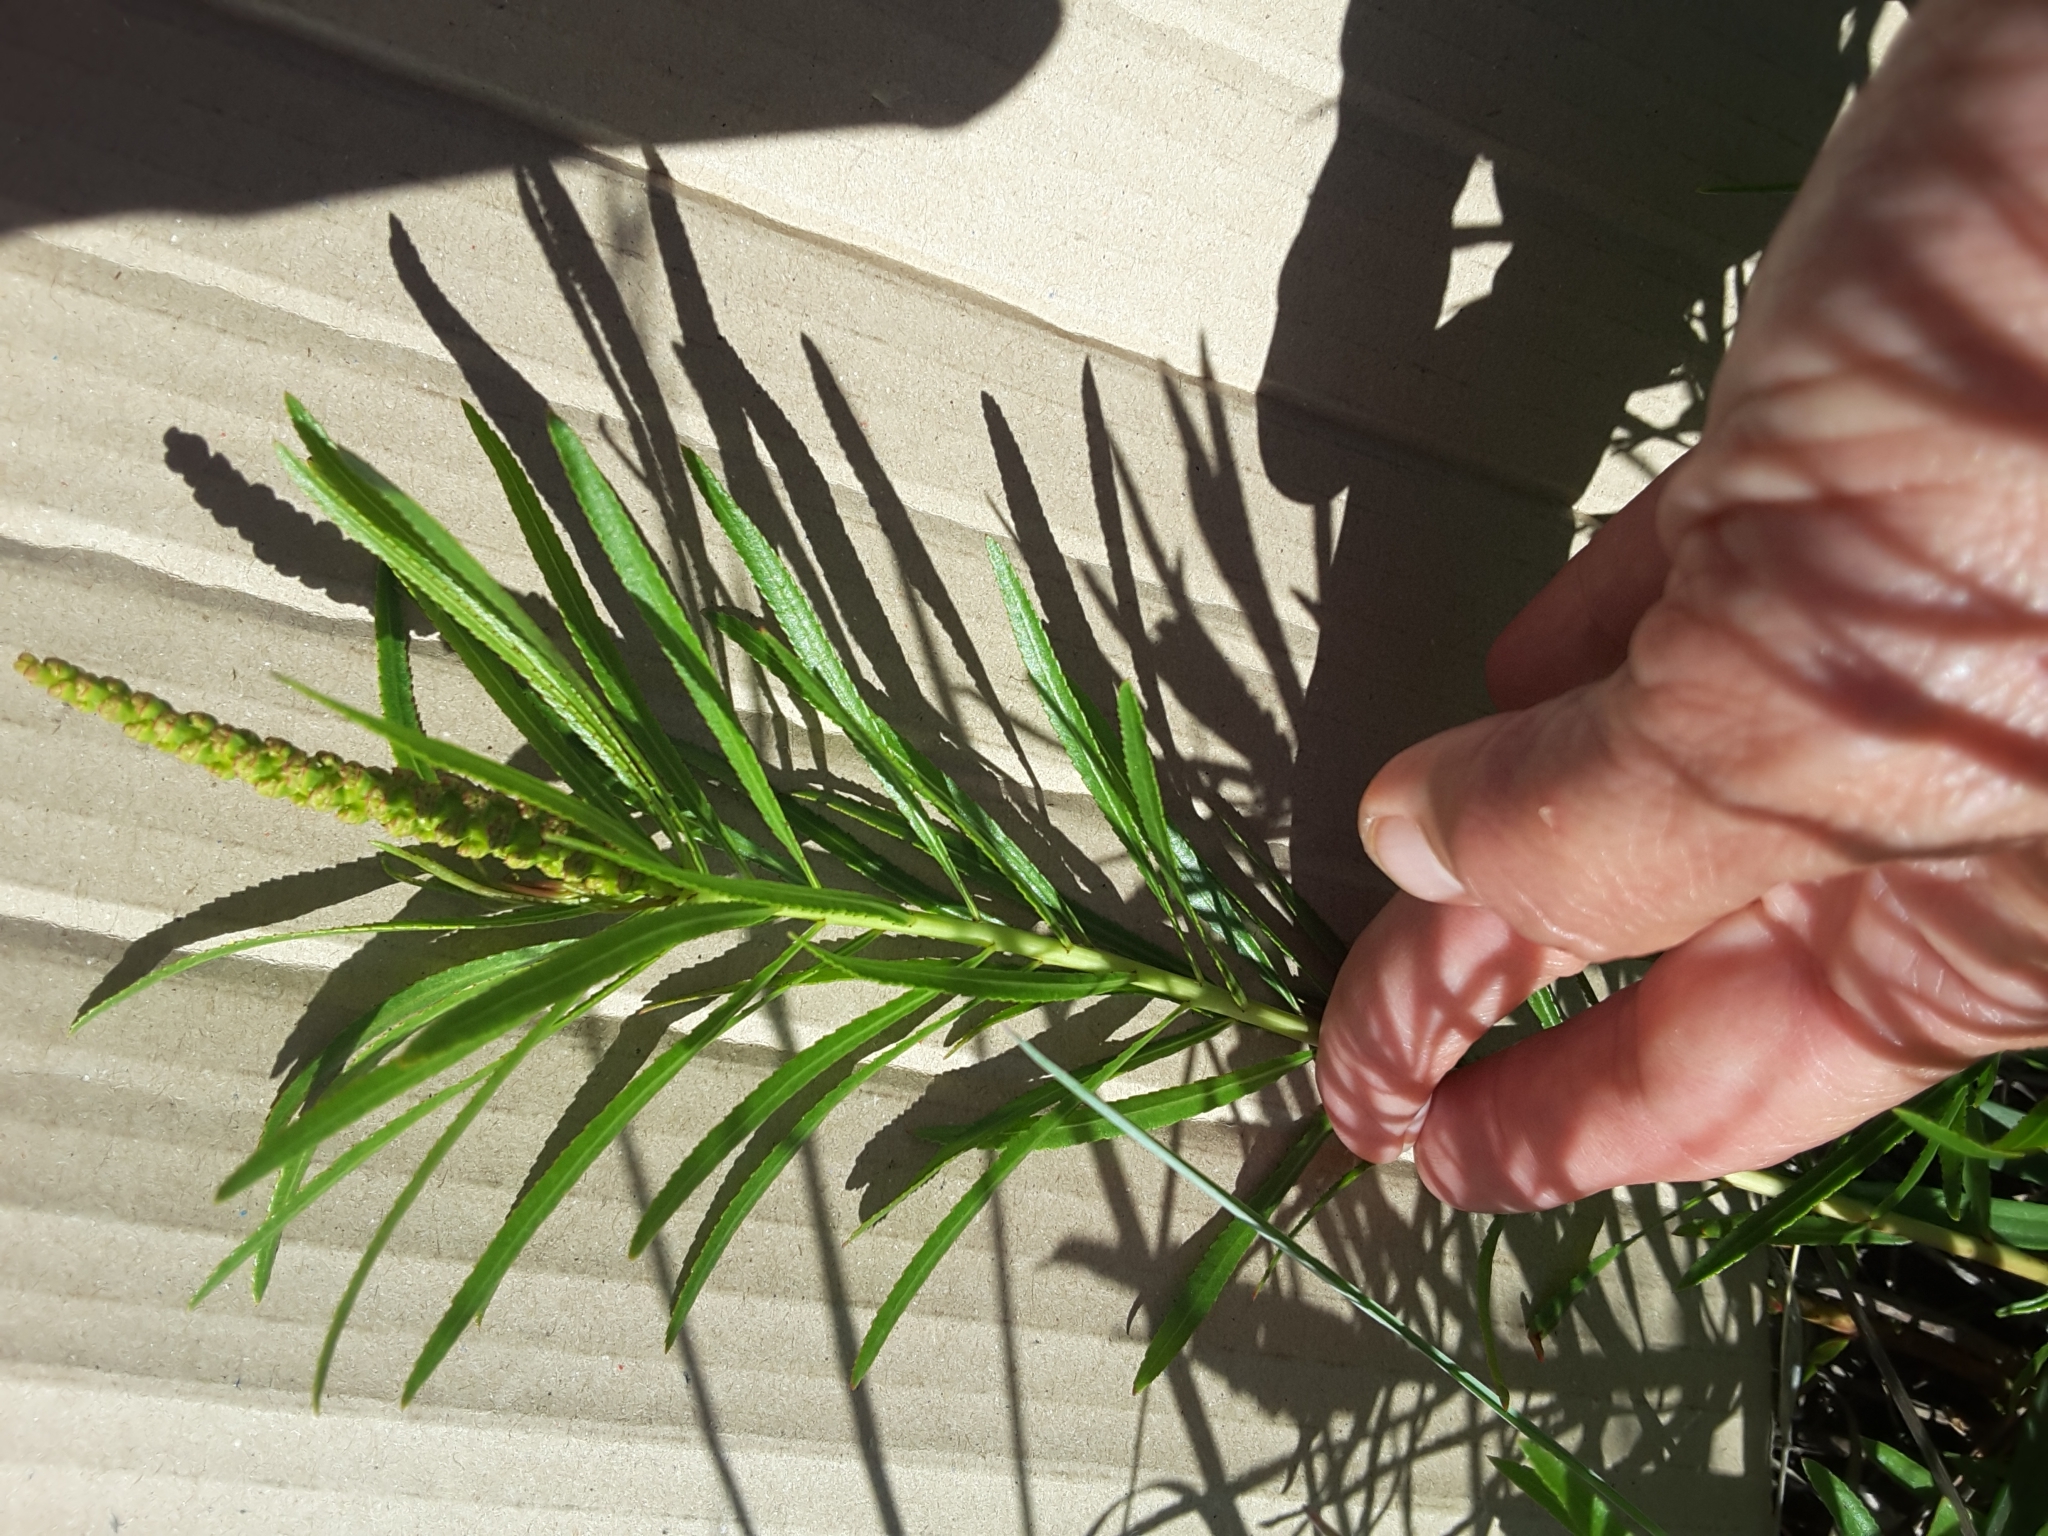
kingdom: Plantae
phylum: Tracheophyta
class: Magnoliopsida
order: Malpighiales
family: Euphorbiaceae
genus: Stillingia
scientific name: Stillingia texana
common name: Texas stillingia
